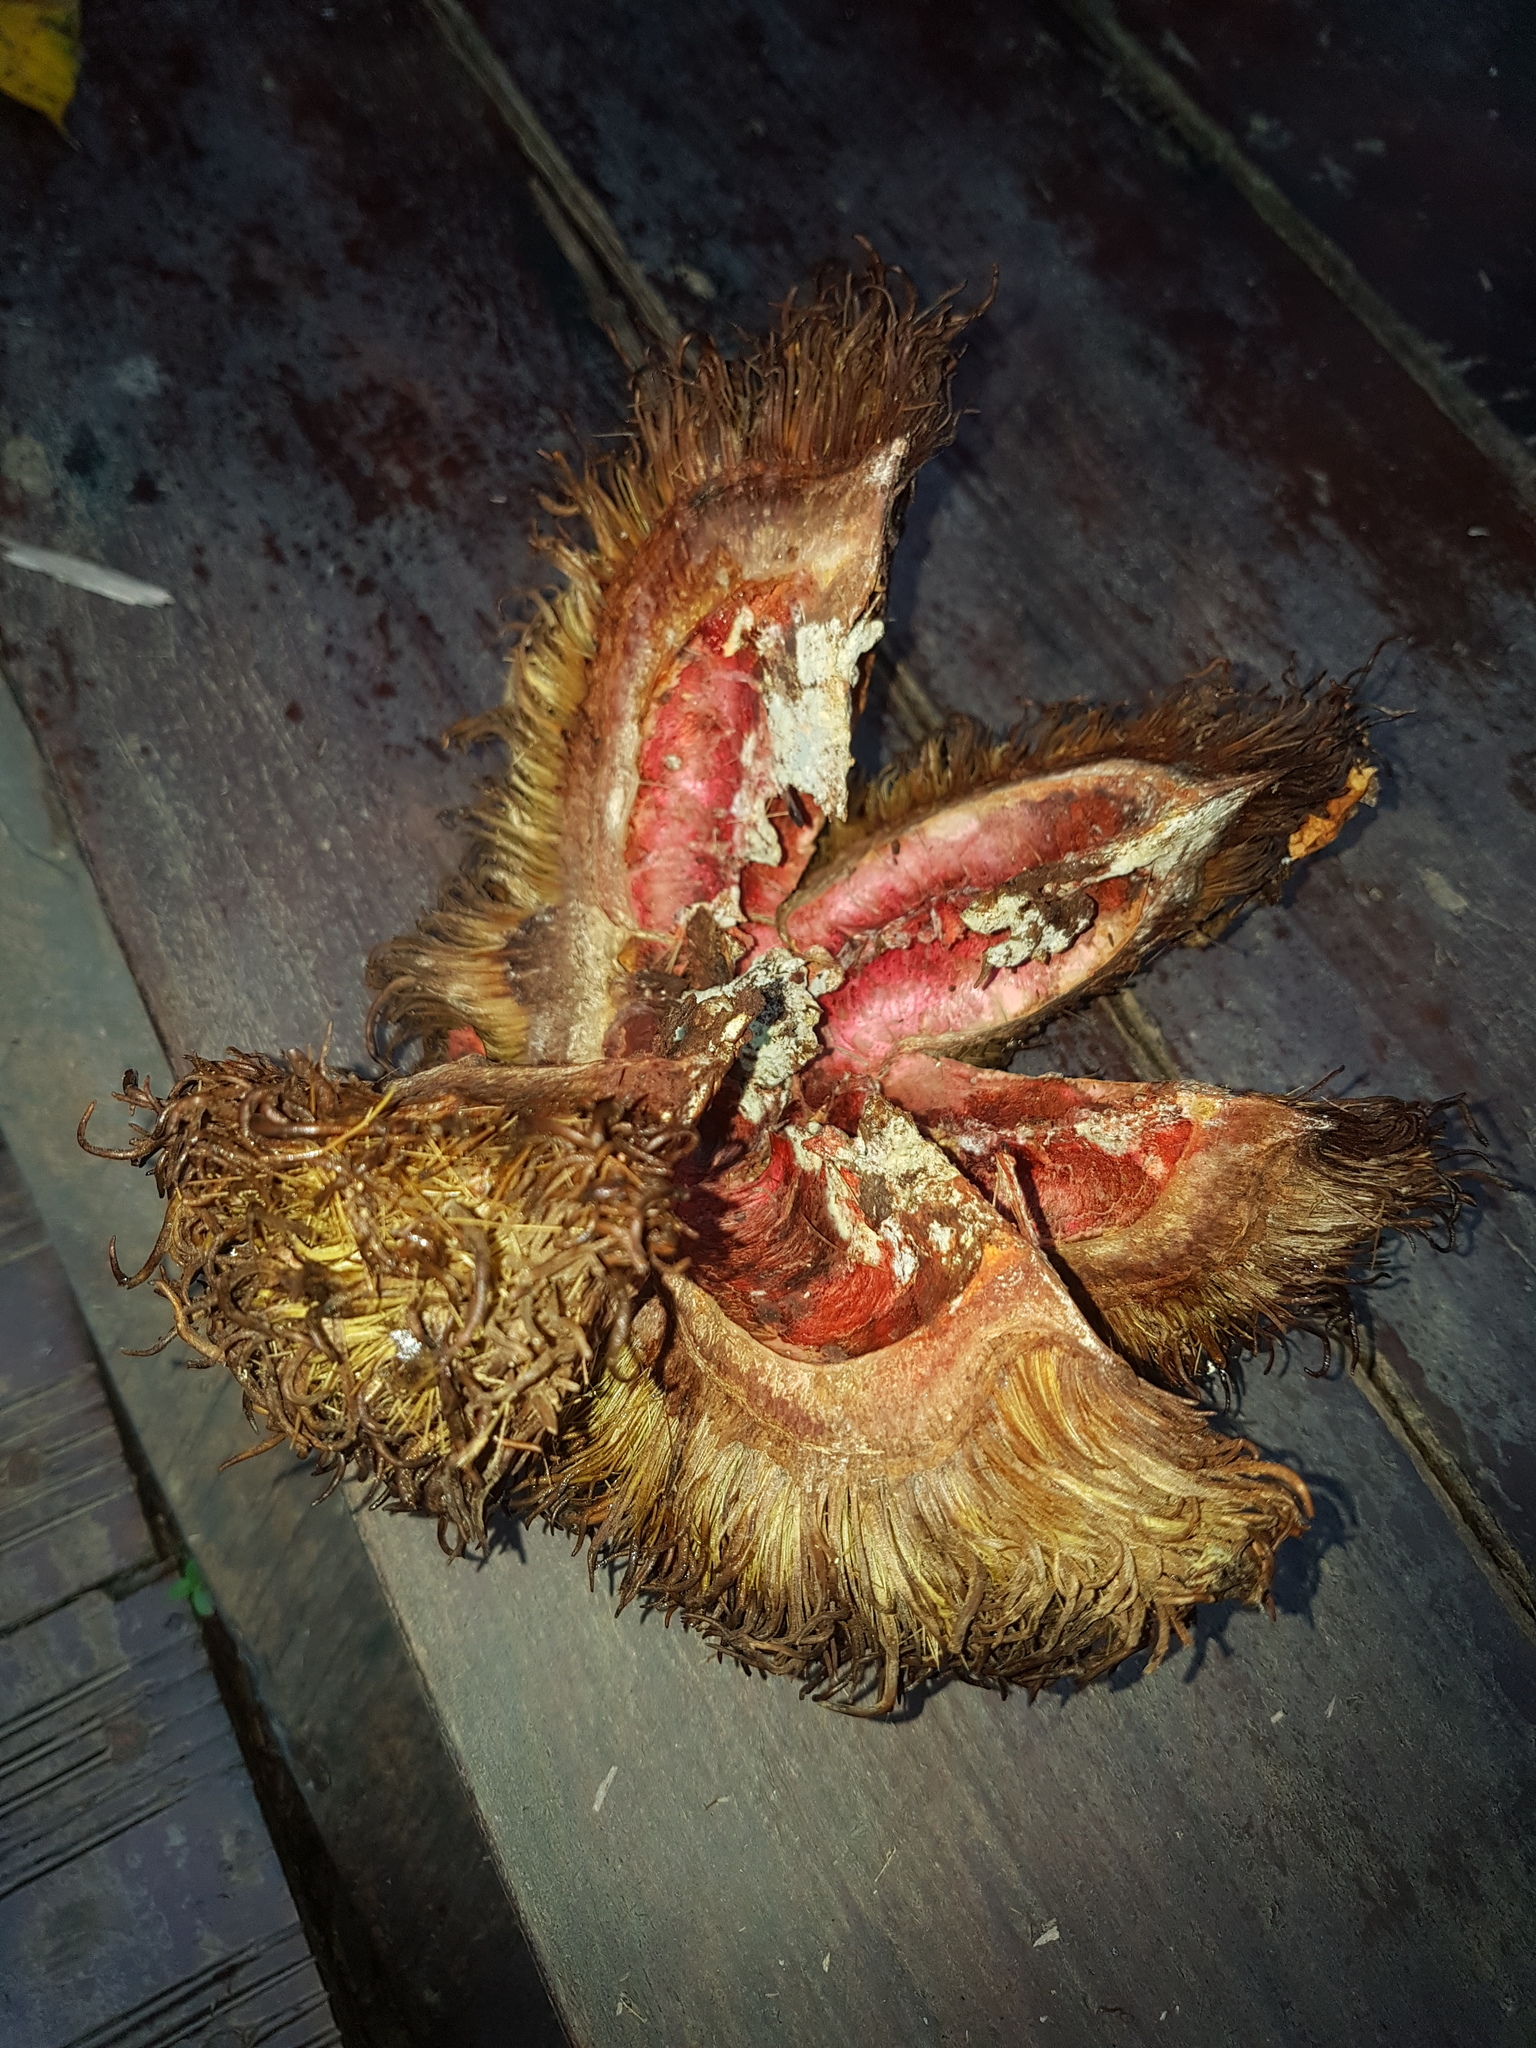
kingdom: Plantae
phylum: Tracheophyta
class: Magnoliopsida
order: Oxalidales
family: Elaeocarpaceae
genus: Sloanea
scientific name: Sloanea fragrans
